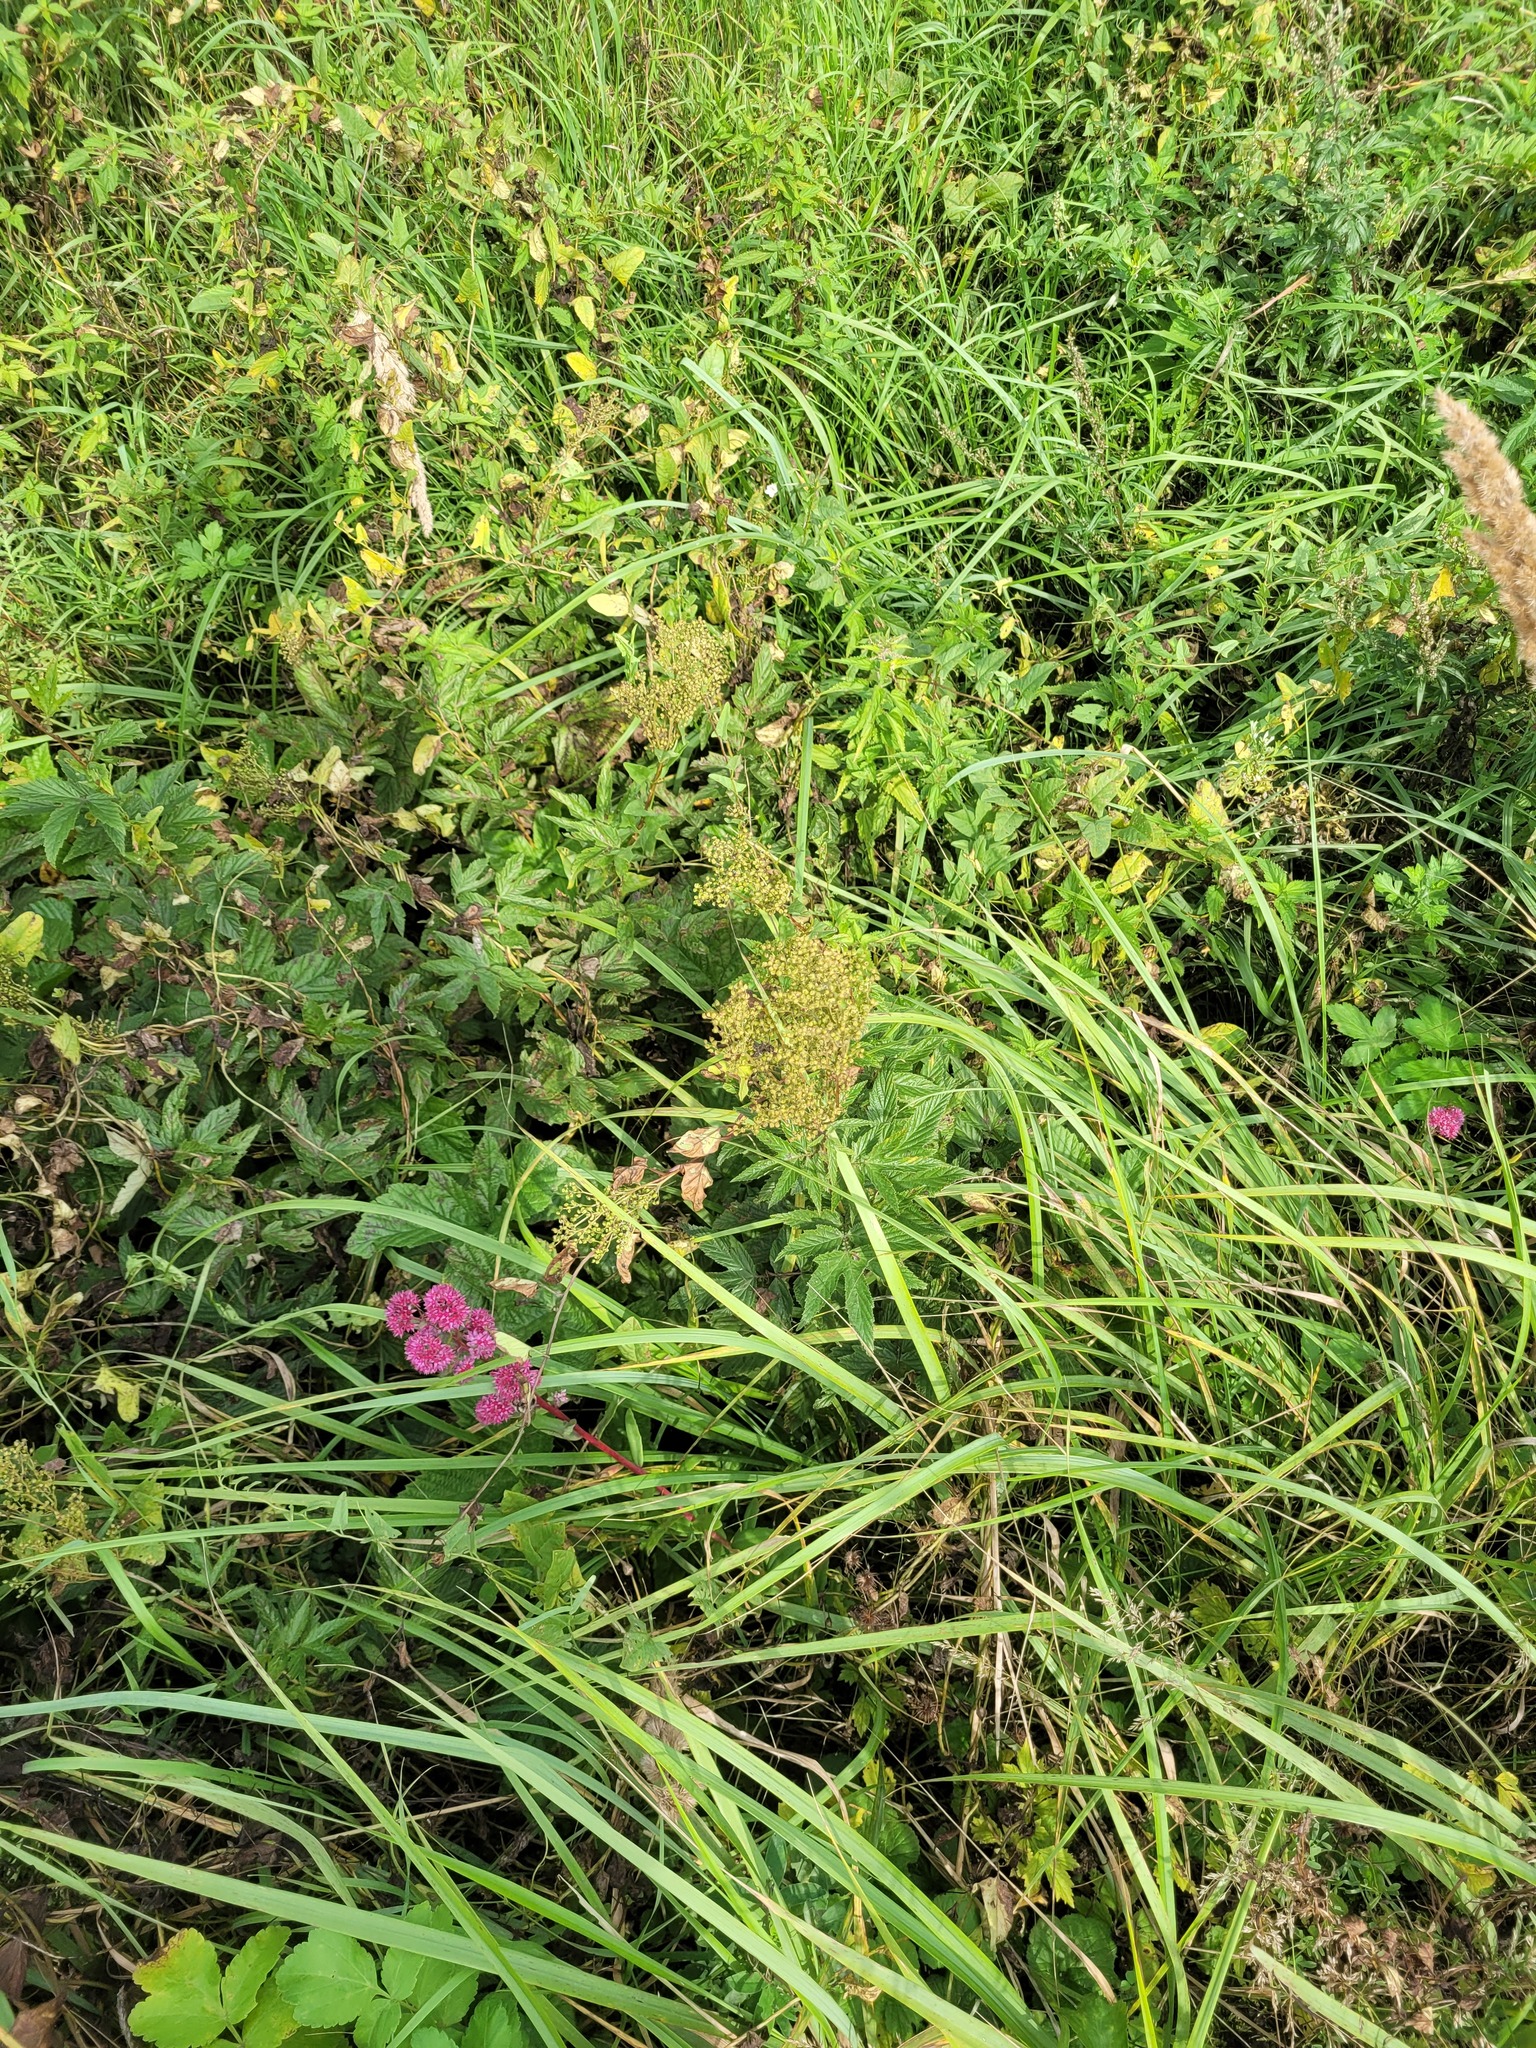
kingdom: Plantae
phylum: Tracheophyta
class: Magnoliopsida
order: Rosales
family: Rosaceae
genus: Filipendula
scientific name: Filipendula ulmaria
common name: Meadowsweet
